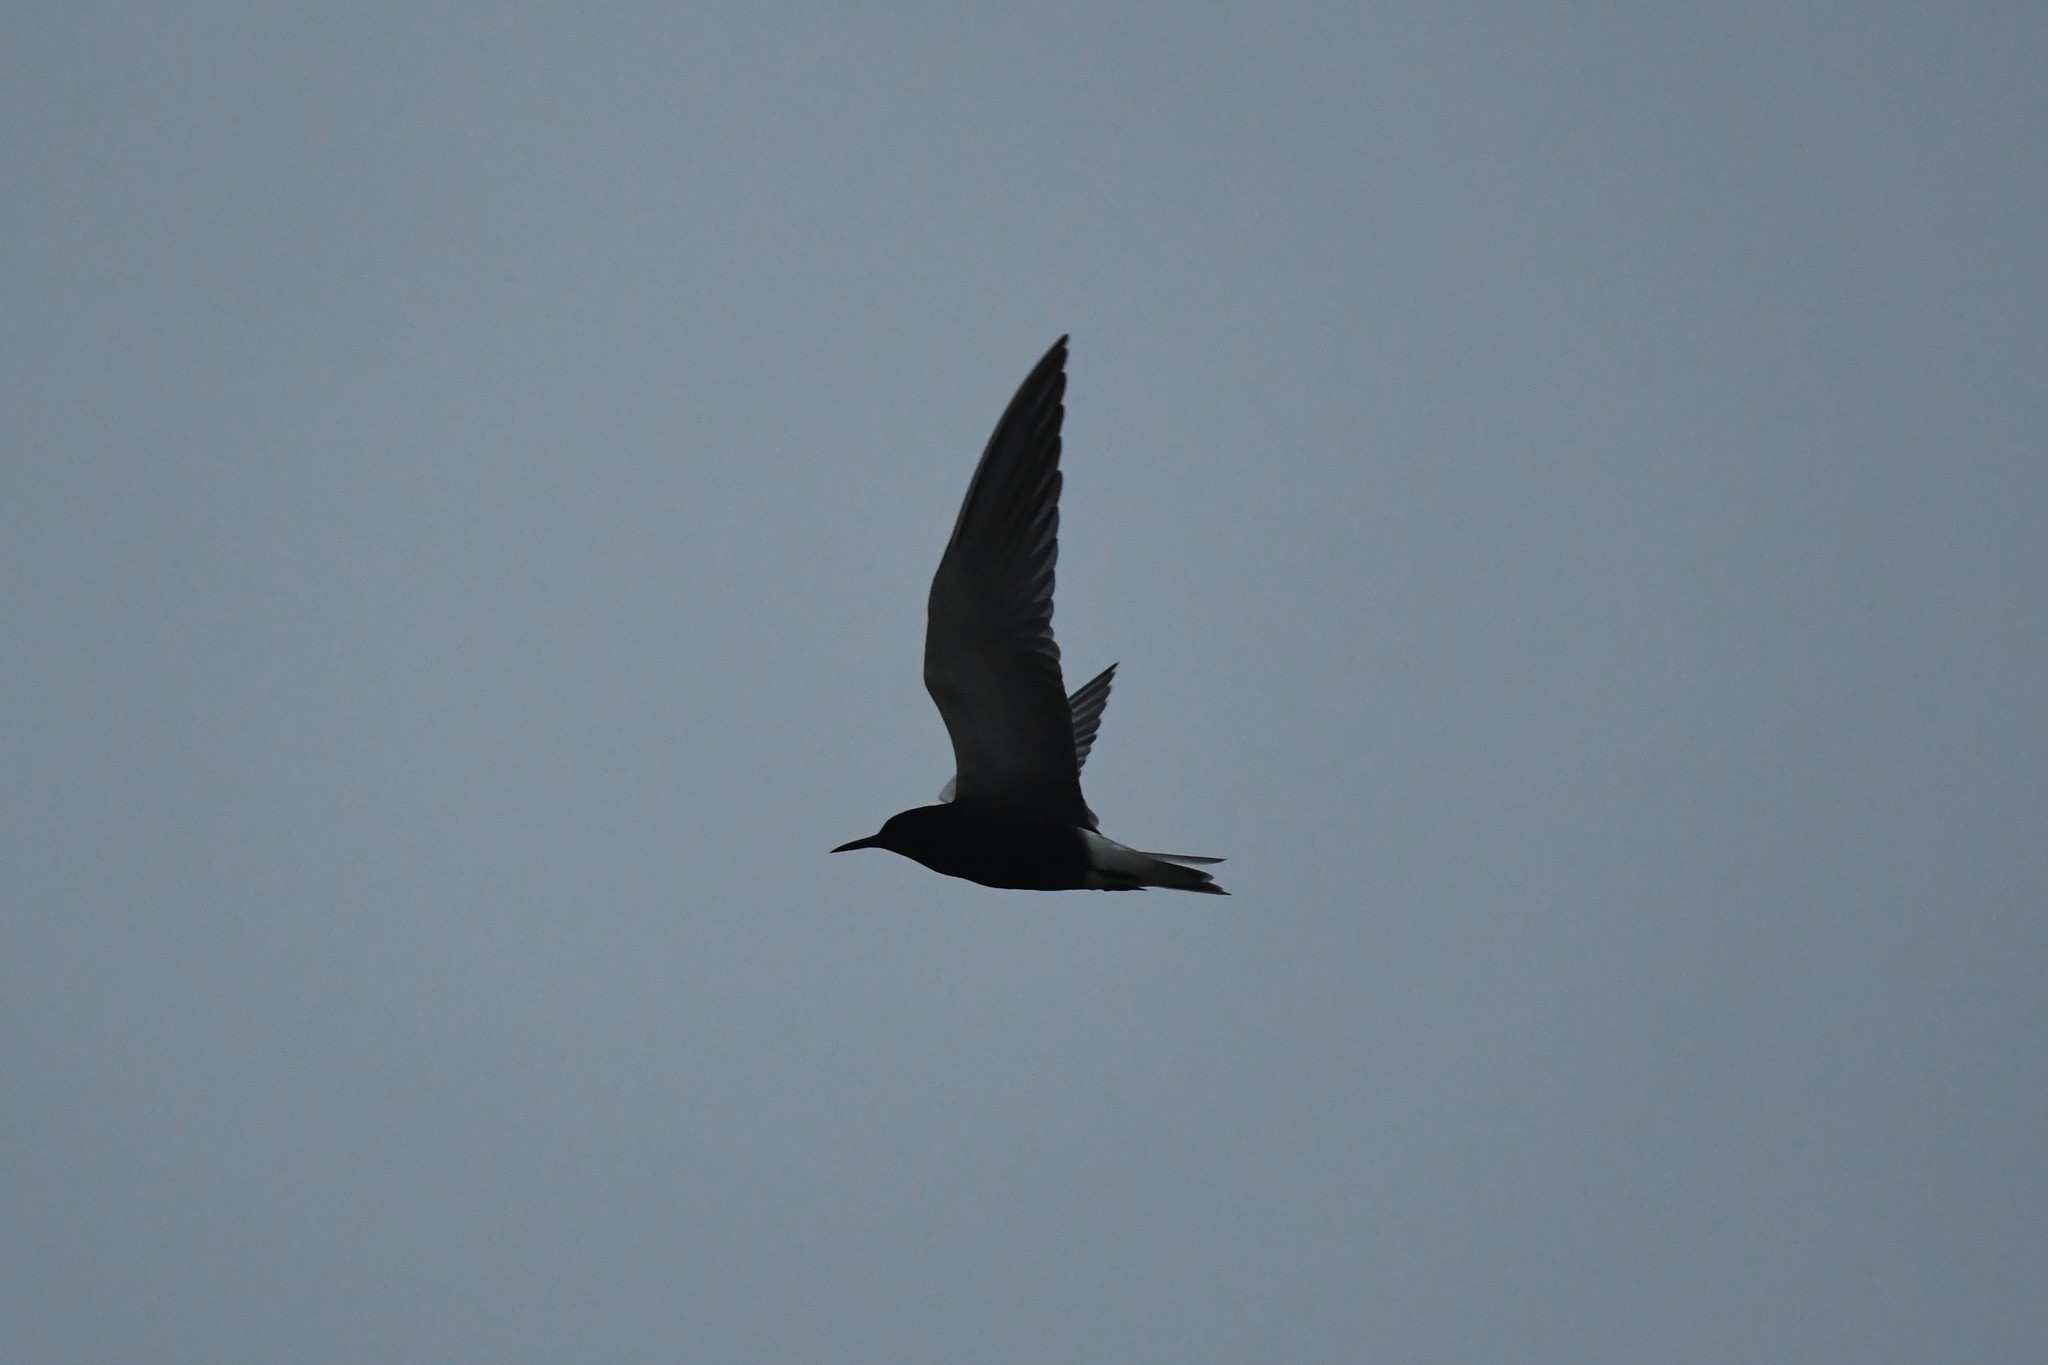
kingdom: Animalia
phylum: Chordata
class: Aves
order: Charadriiformes
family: Laridae
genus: Chlidonias
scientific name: Chlidonias niger
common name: Black tern
